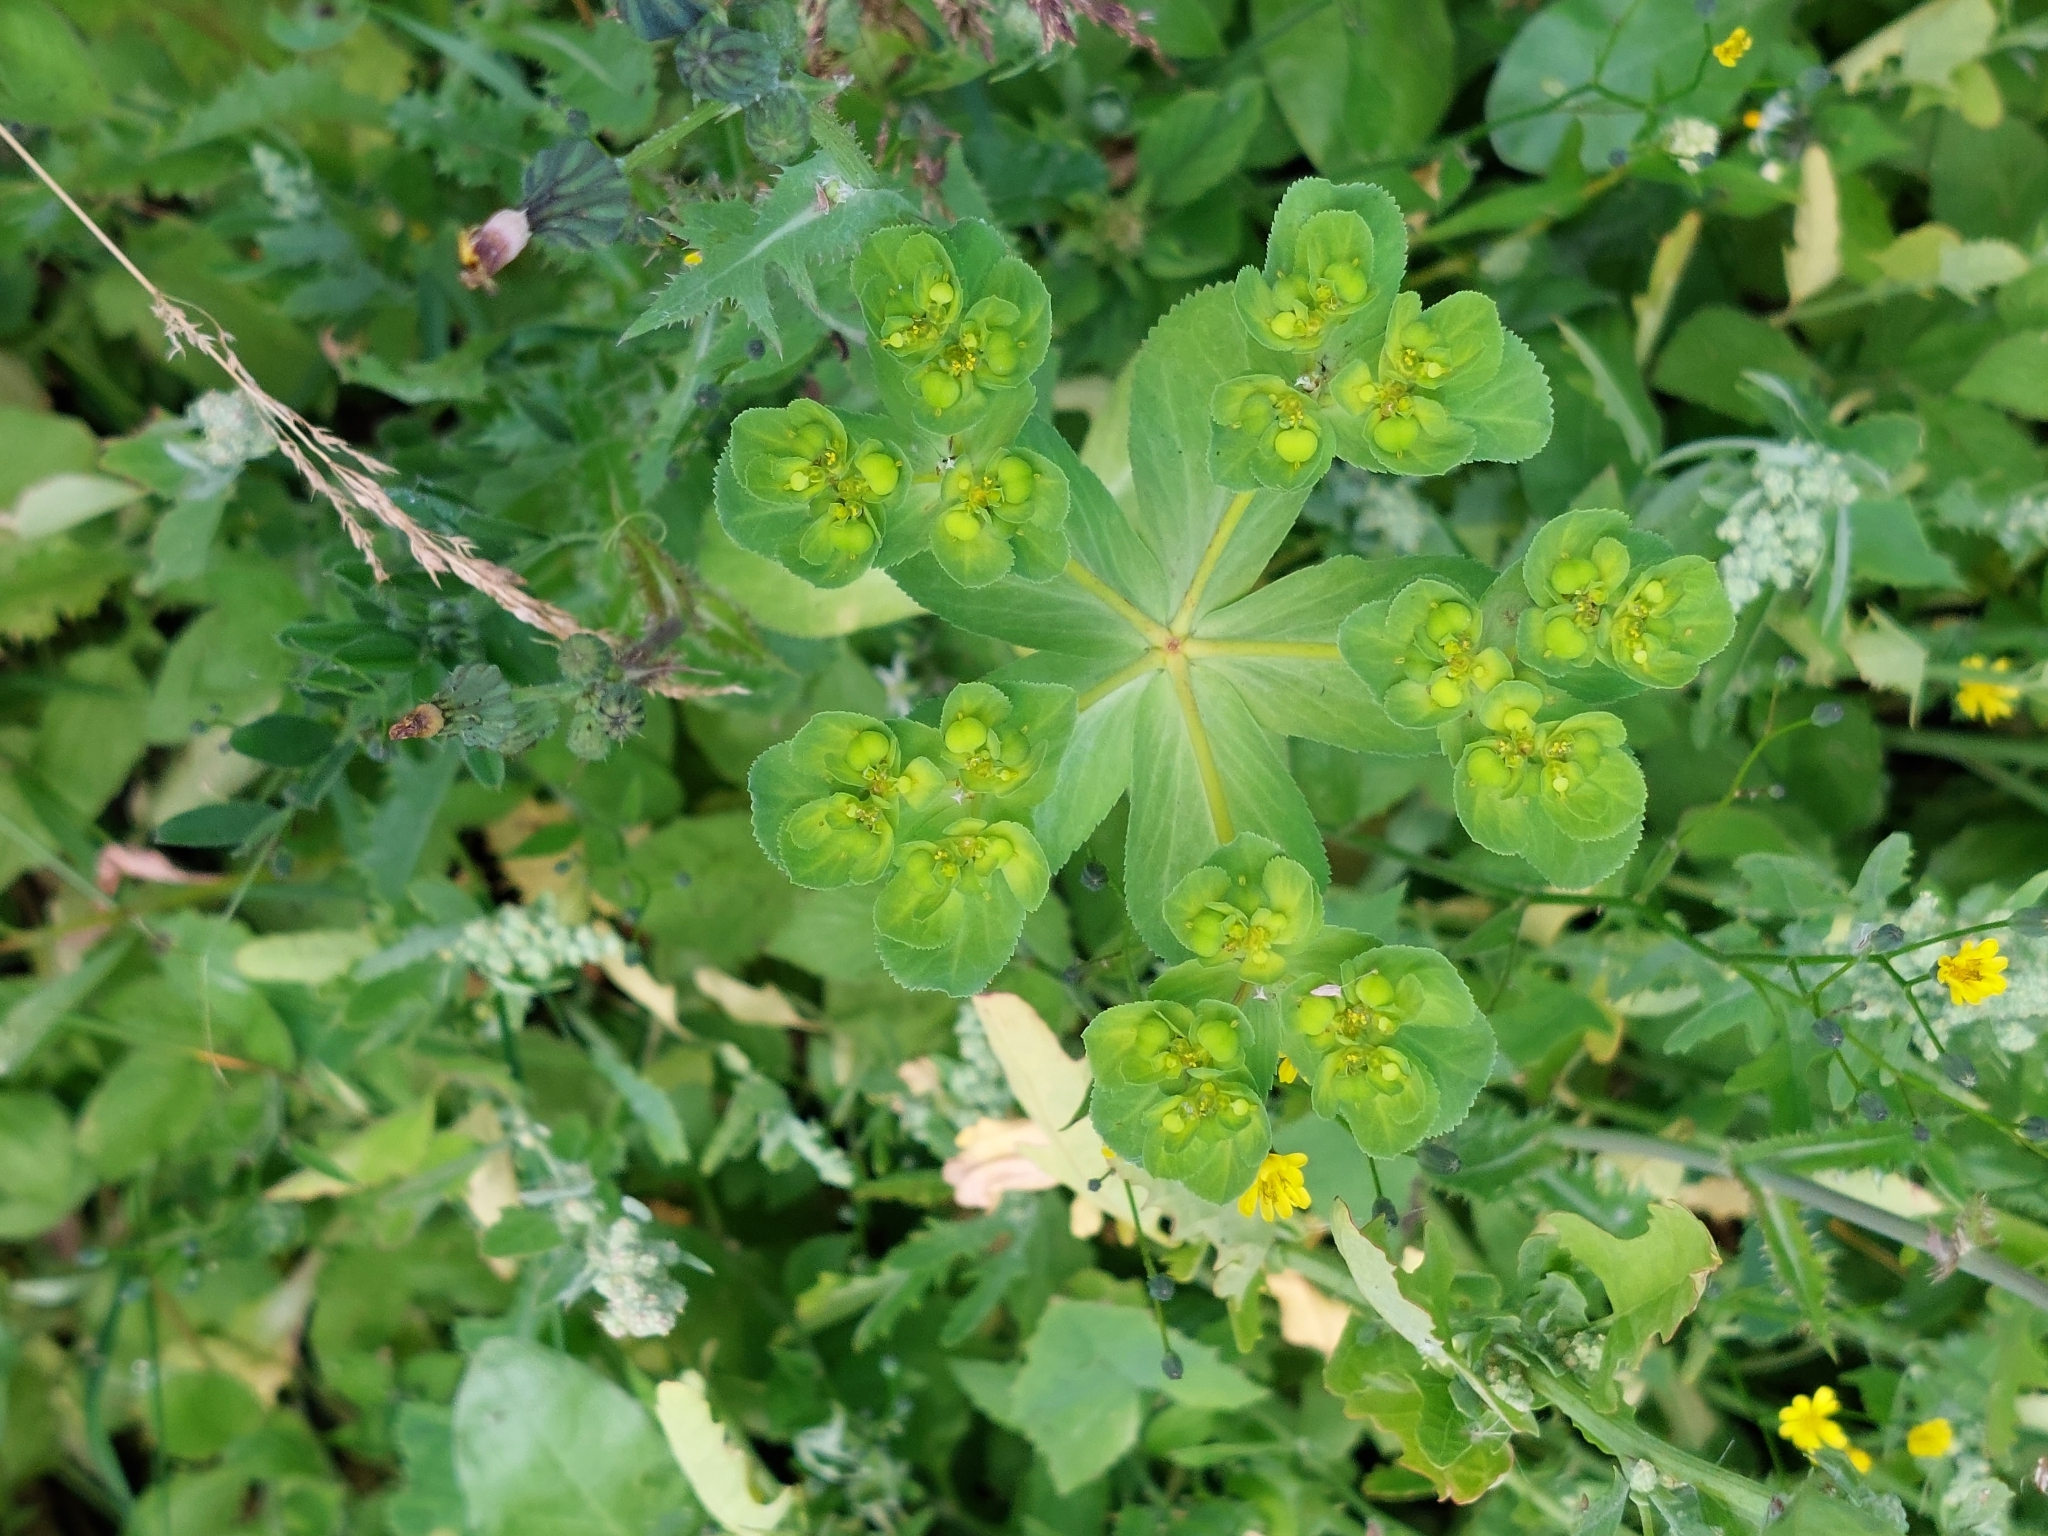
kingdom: Plantae
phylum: Tracheophyta
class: Magnoliopsida
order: Malpighiales
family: Euphorbiaceae
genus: Euphorbia
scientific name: Euphorbia helioscopia
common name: Sun spurge
